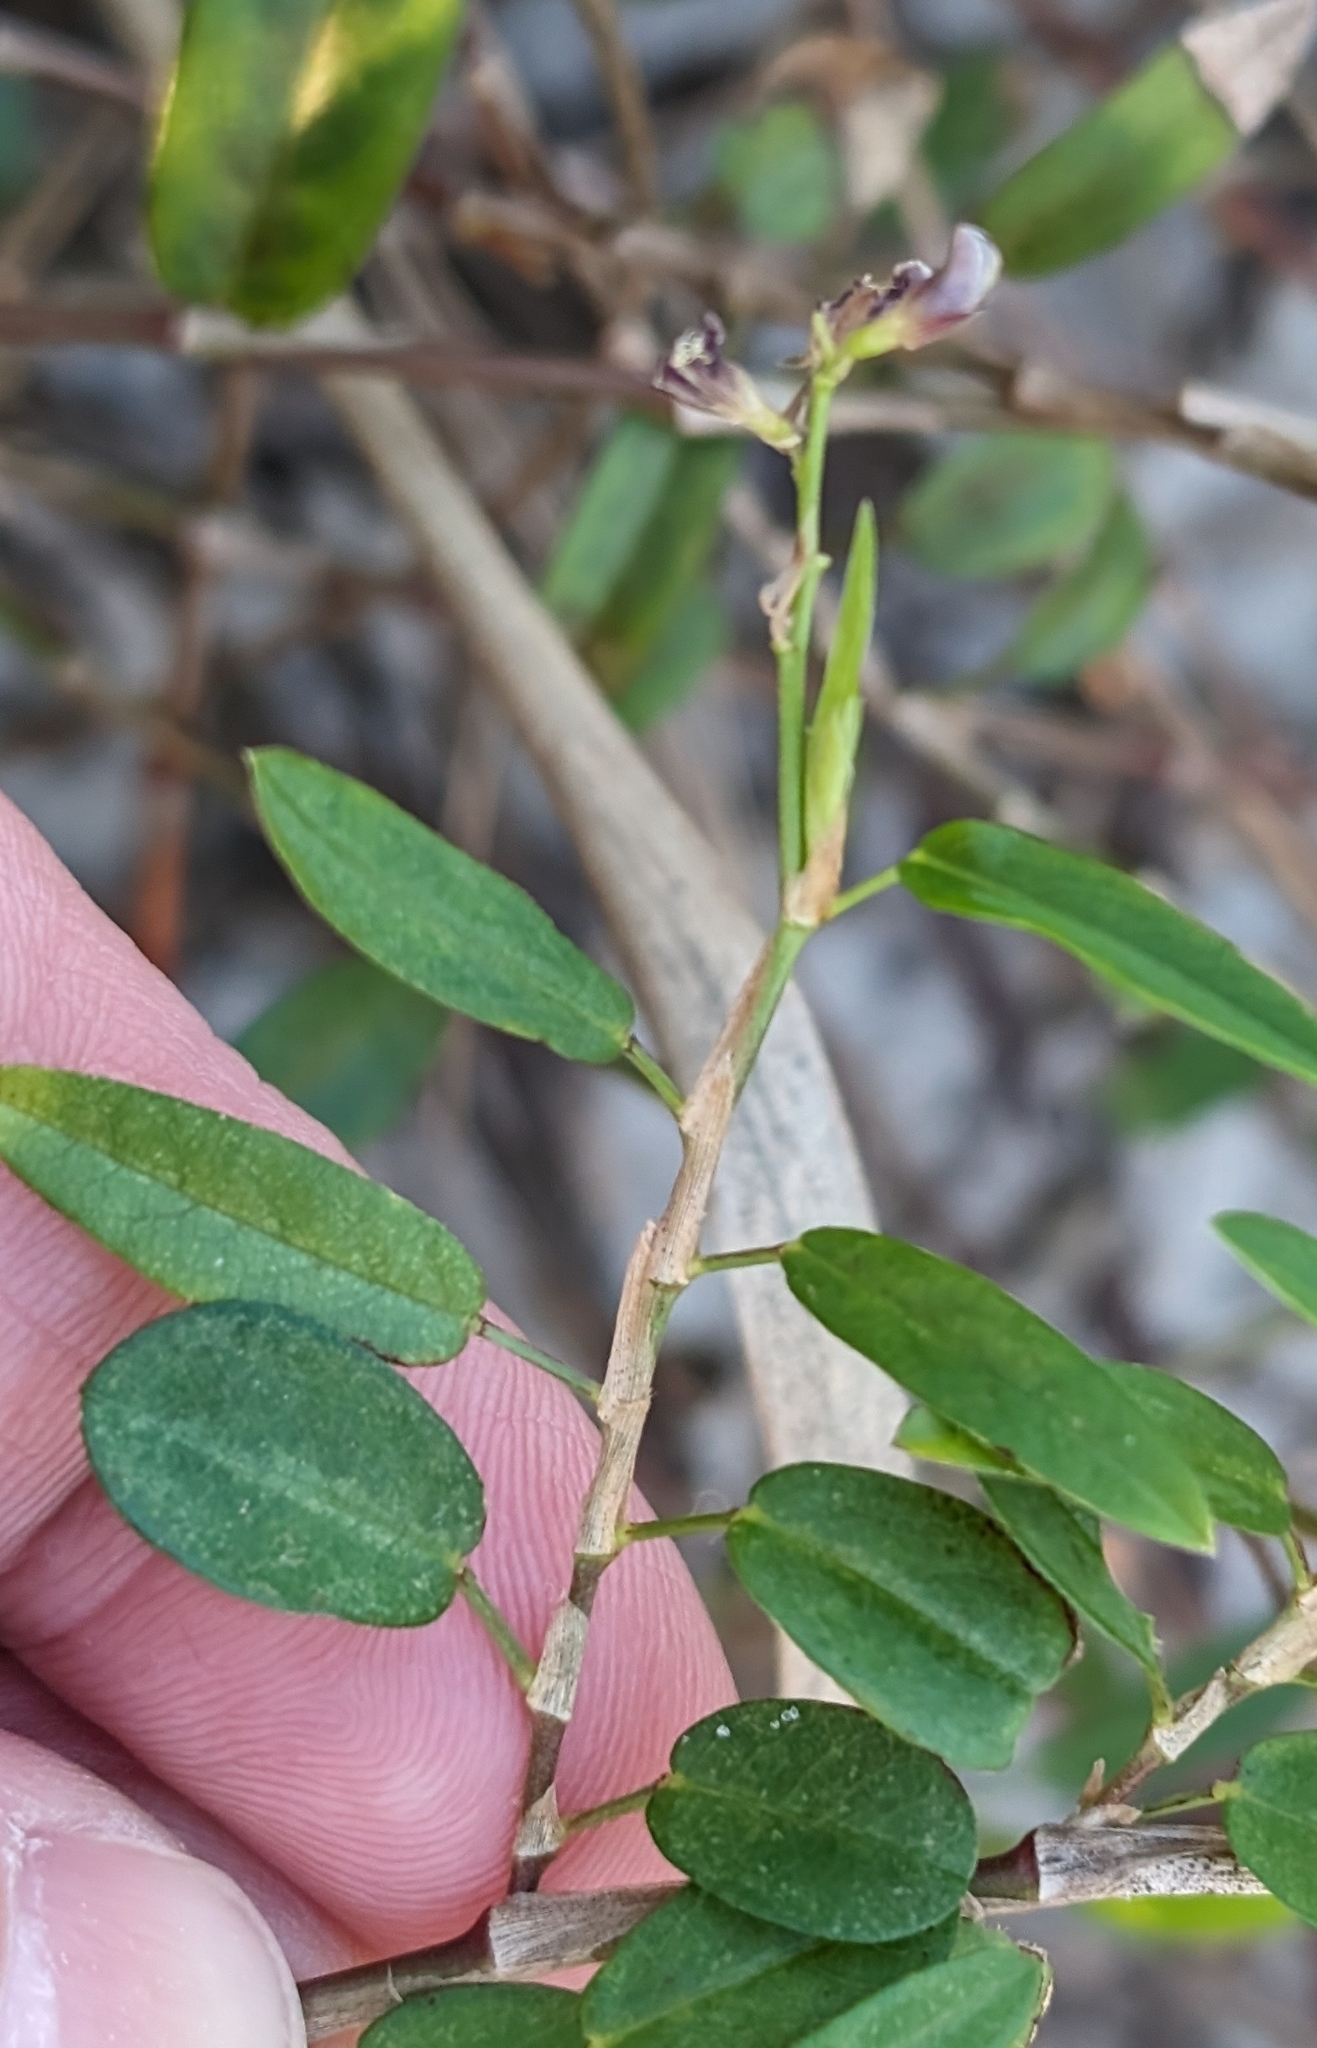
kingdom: Plantae
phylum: Tracheophyta
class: Magnoliopsida
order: Fabales
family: Fabaceae
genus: Alysicarpus
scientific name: Alysicarpus vaginalis
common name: White moneywort
